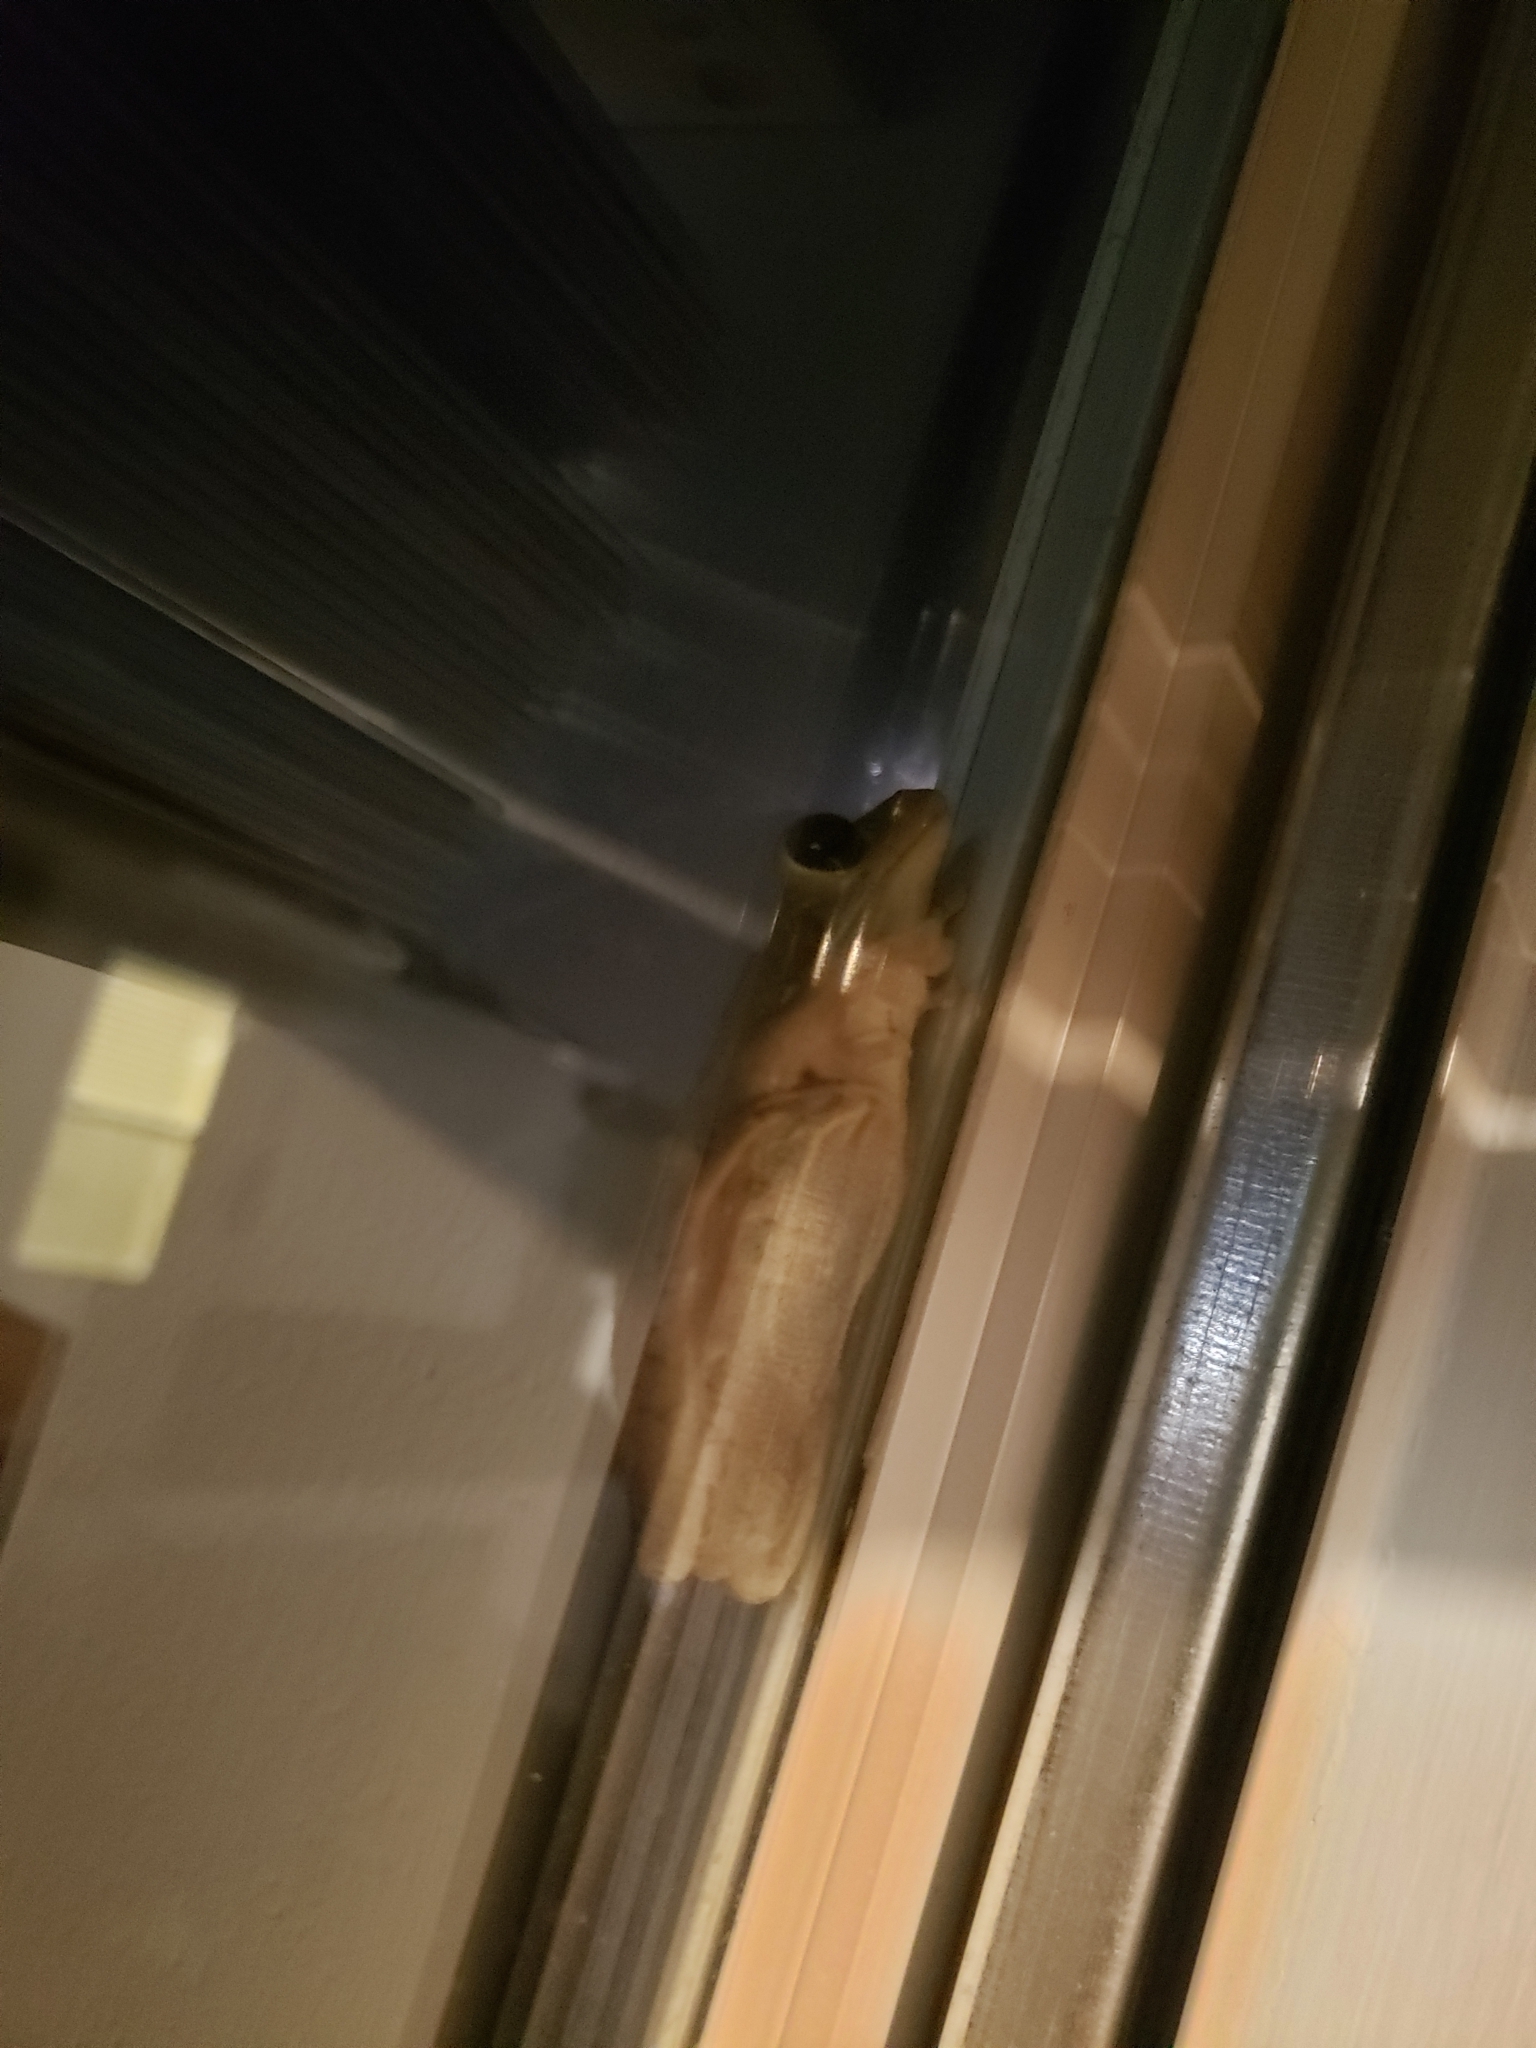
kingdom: Animalia
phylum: Chordata
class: Amphibia
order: Anura
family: Hylidae
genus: Osteopilus
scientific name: Osteopilus septentrionalis
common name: Cuban treefrog
